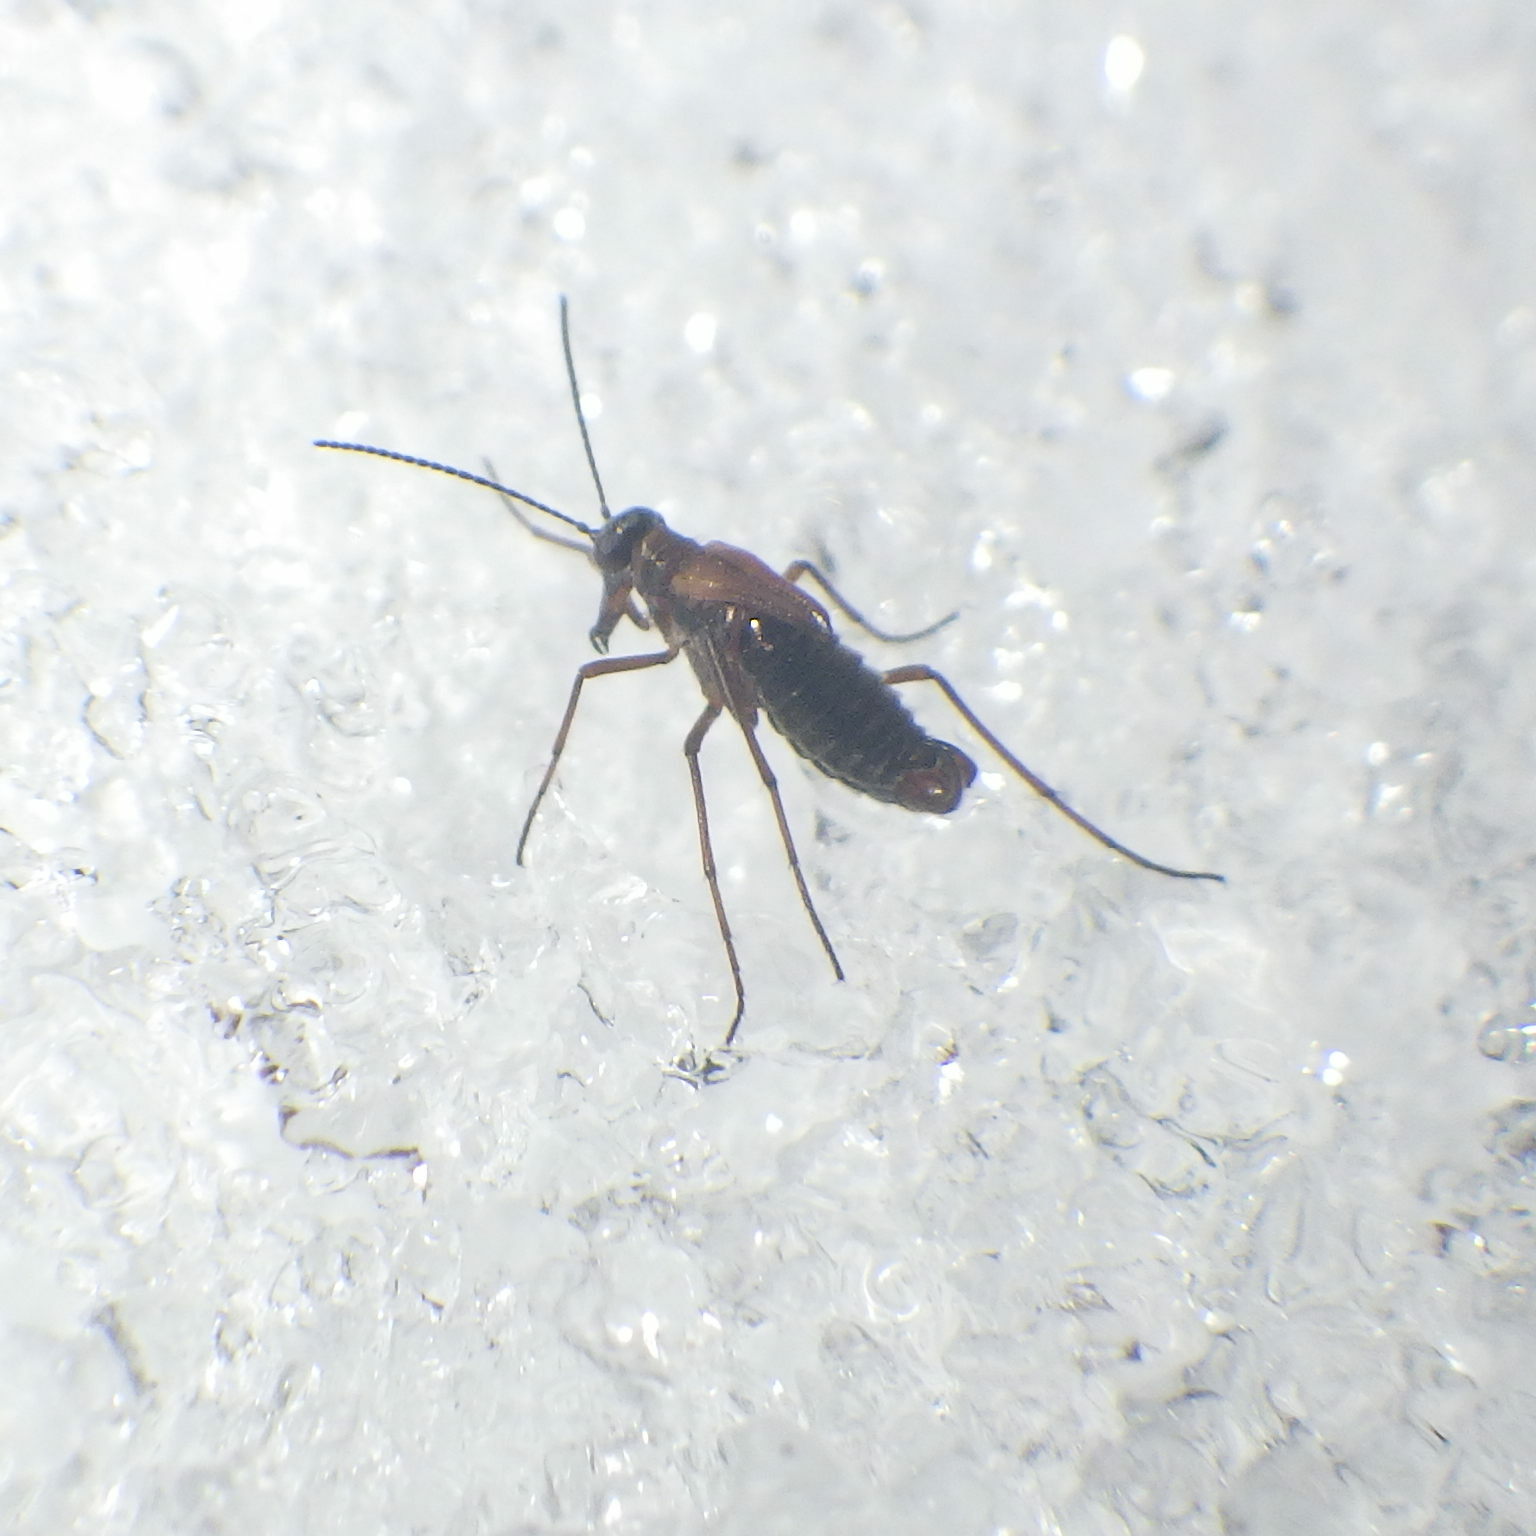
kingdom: Animalia
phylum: Arthropoda
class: Insecta
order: Mecoptera
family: Boreidae
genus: Boreus
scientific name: Boreus nivoriundus
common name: Snow-born boreus
